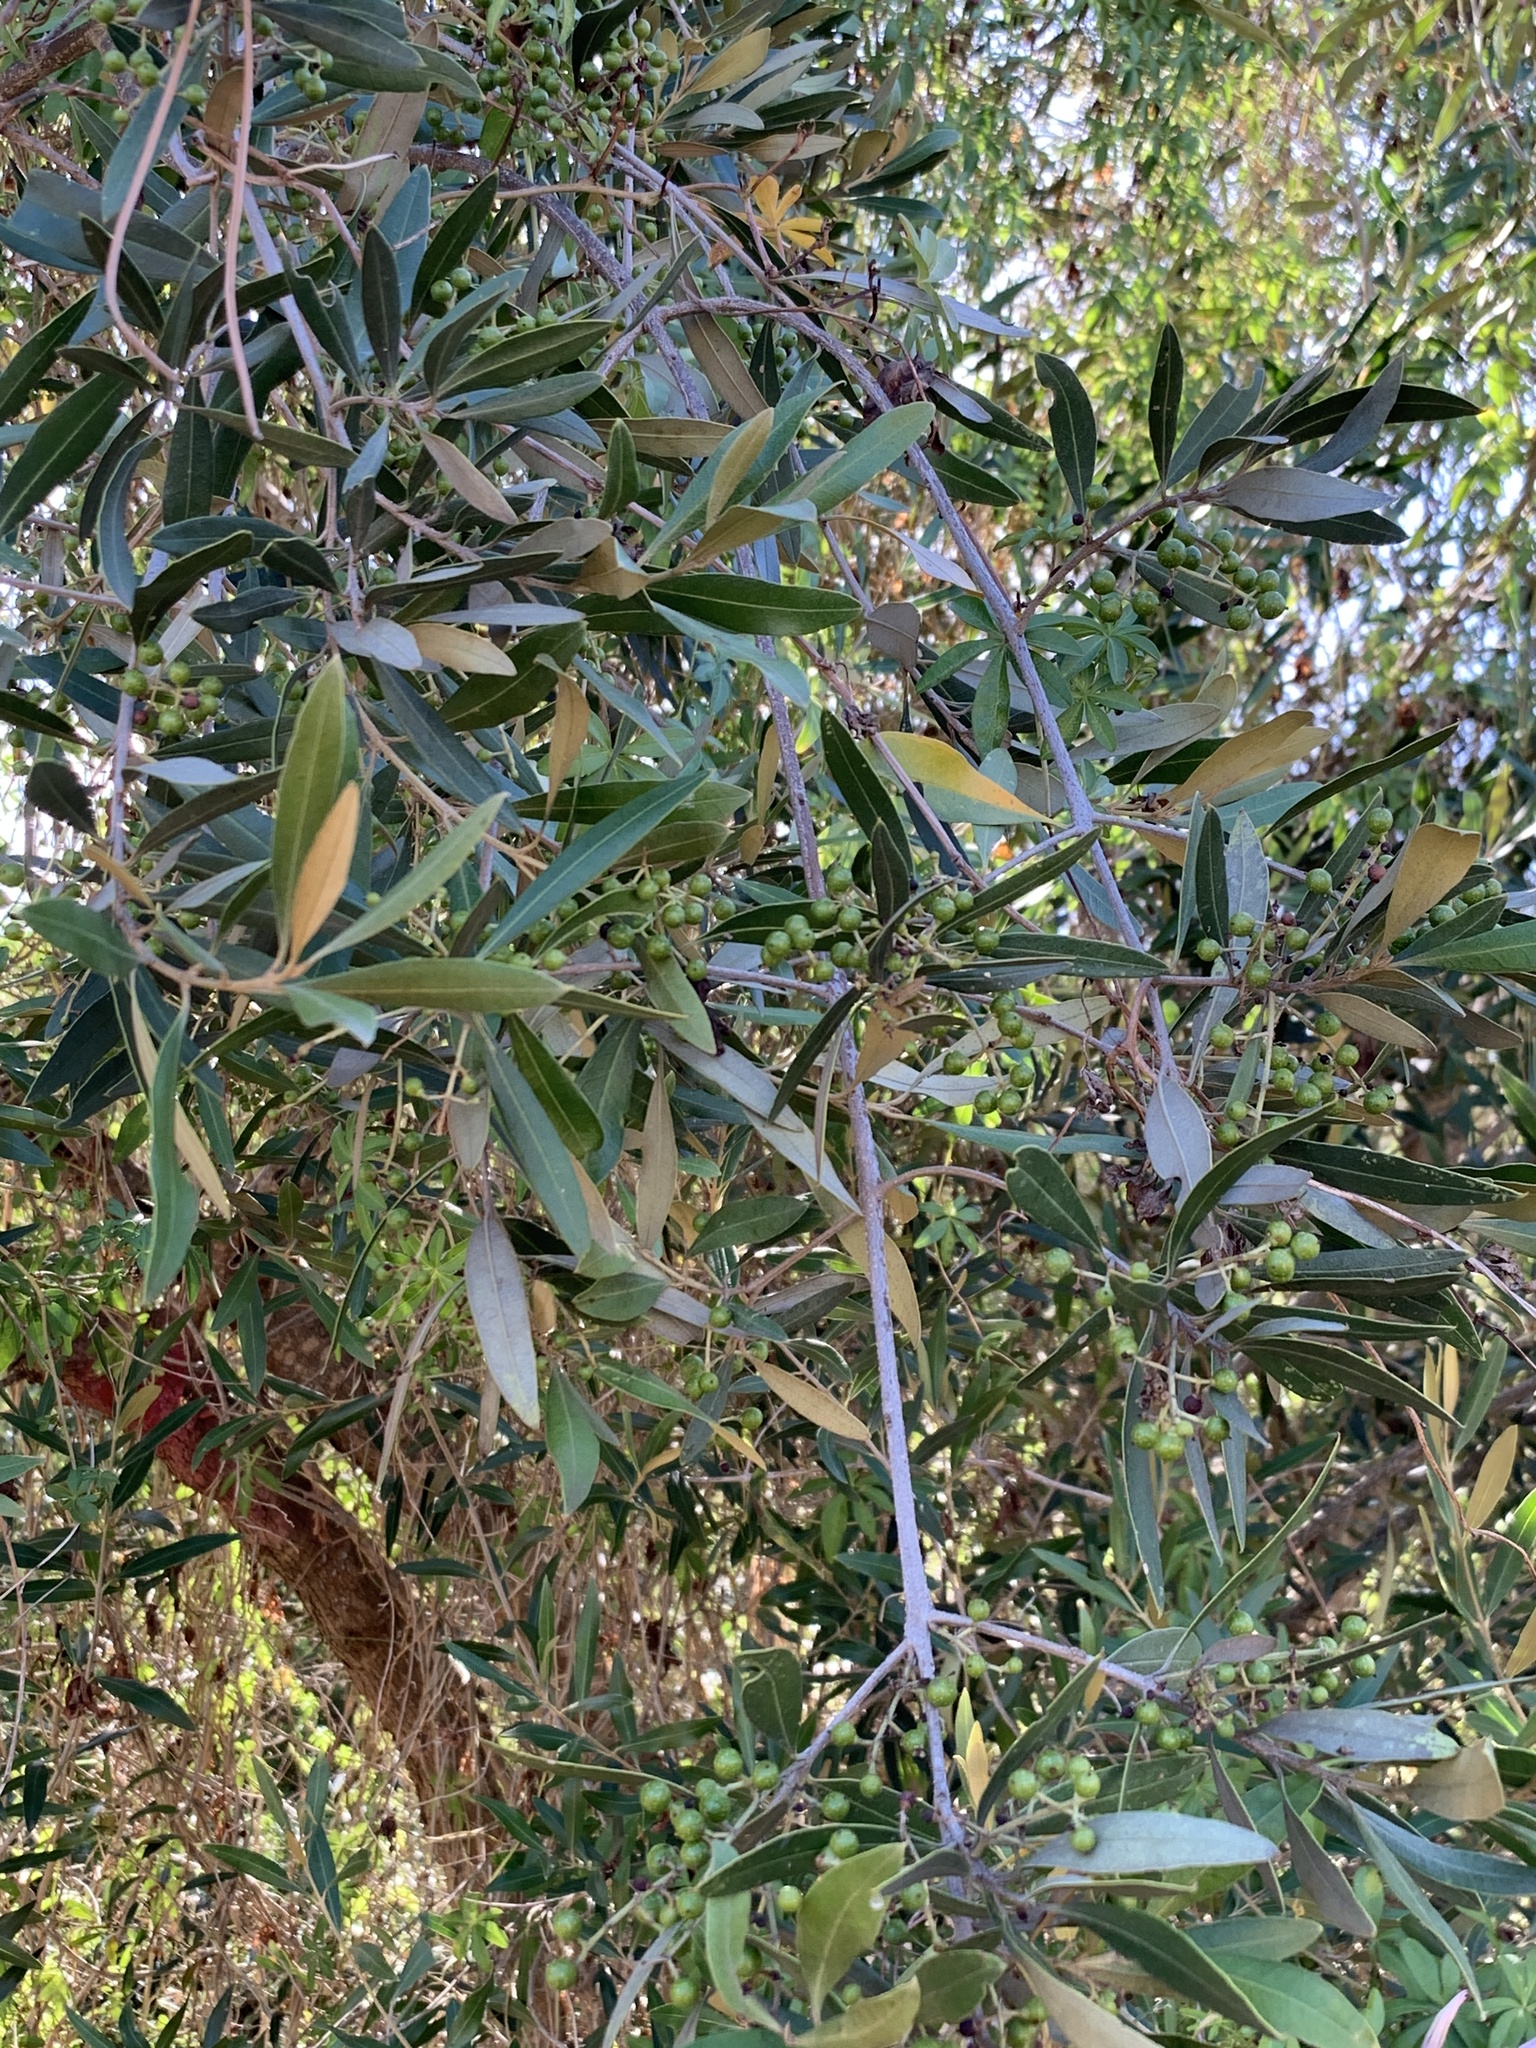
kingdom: Plantae
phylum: Tracheophyta
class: Magnoliopsida
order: Lamiales
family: Oleaceae
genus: Olea
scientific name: Olea europaea
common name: Olive
